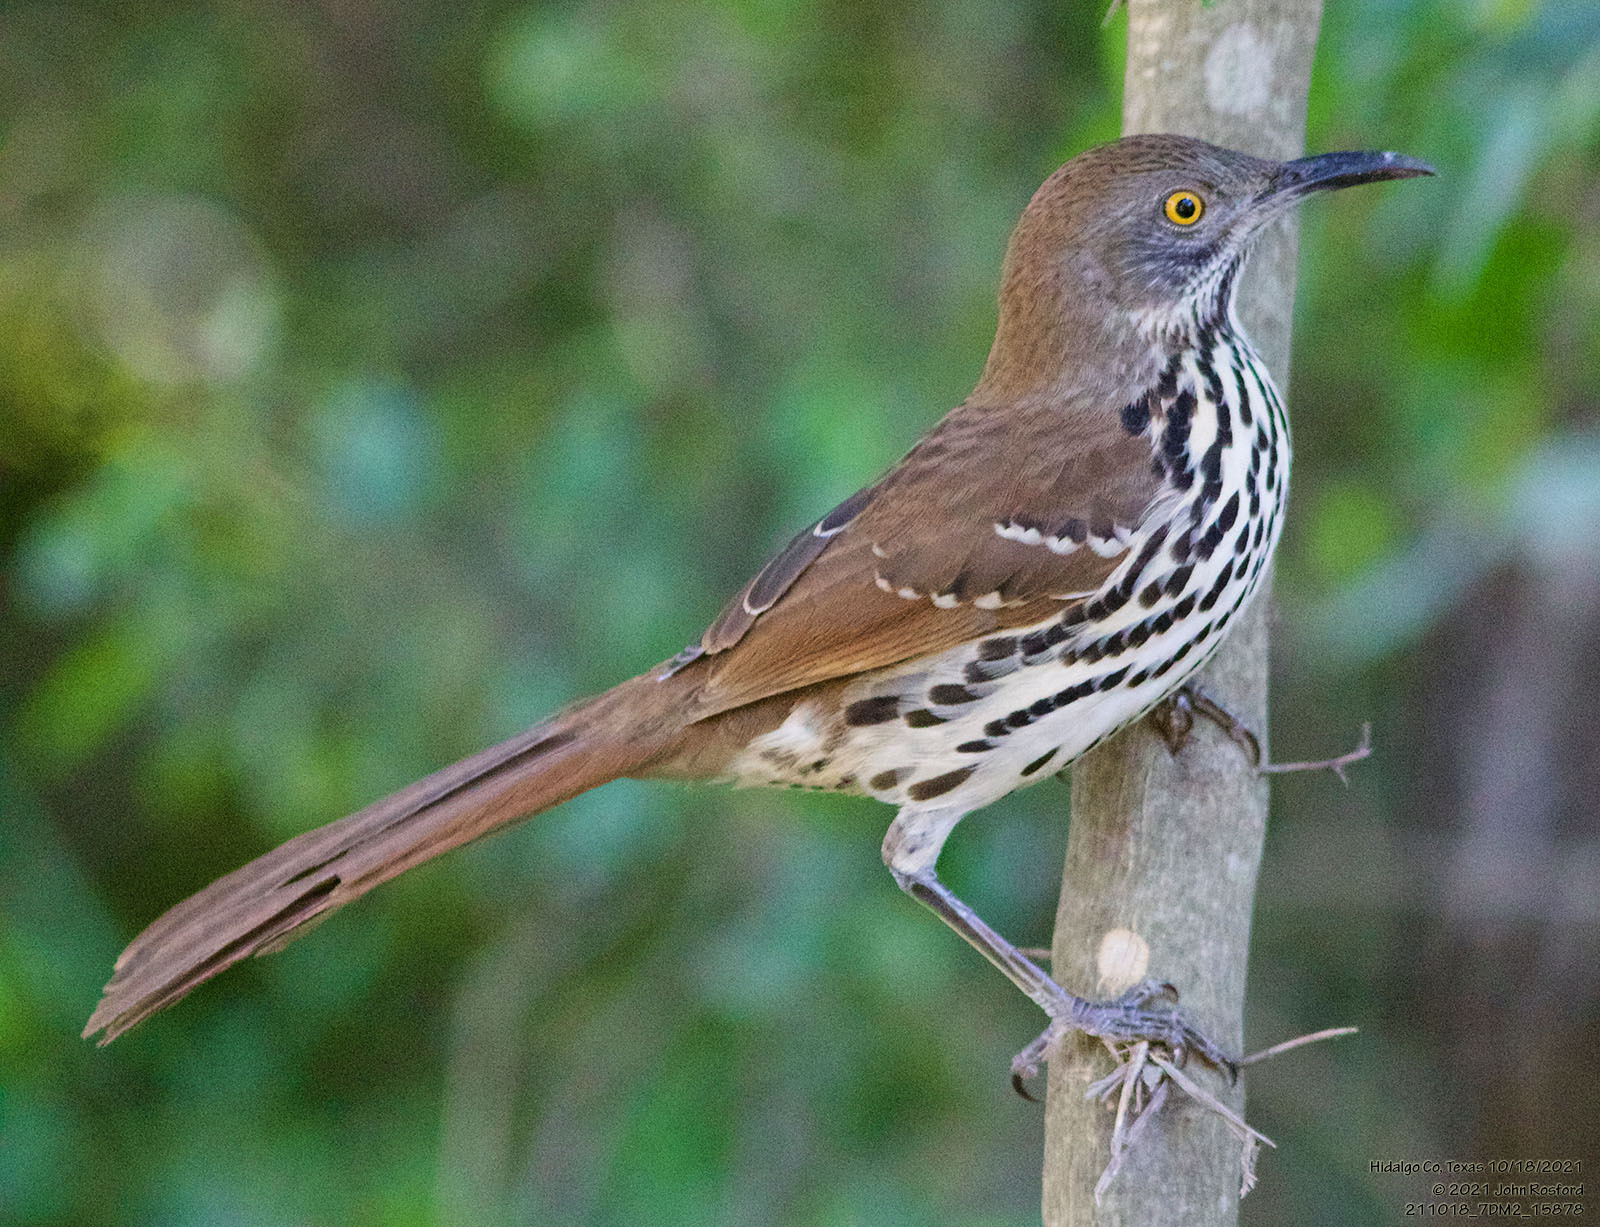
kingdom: Animalia
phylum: Chordata
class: Aves
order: Passeriformes
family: Mimidae
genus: Toxostoma
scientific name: Toxostoma longirostre
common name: Long-billed thrasher
